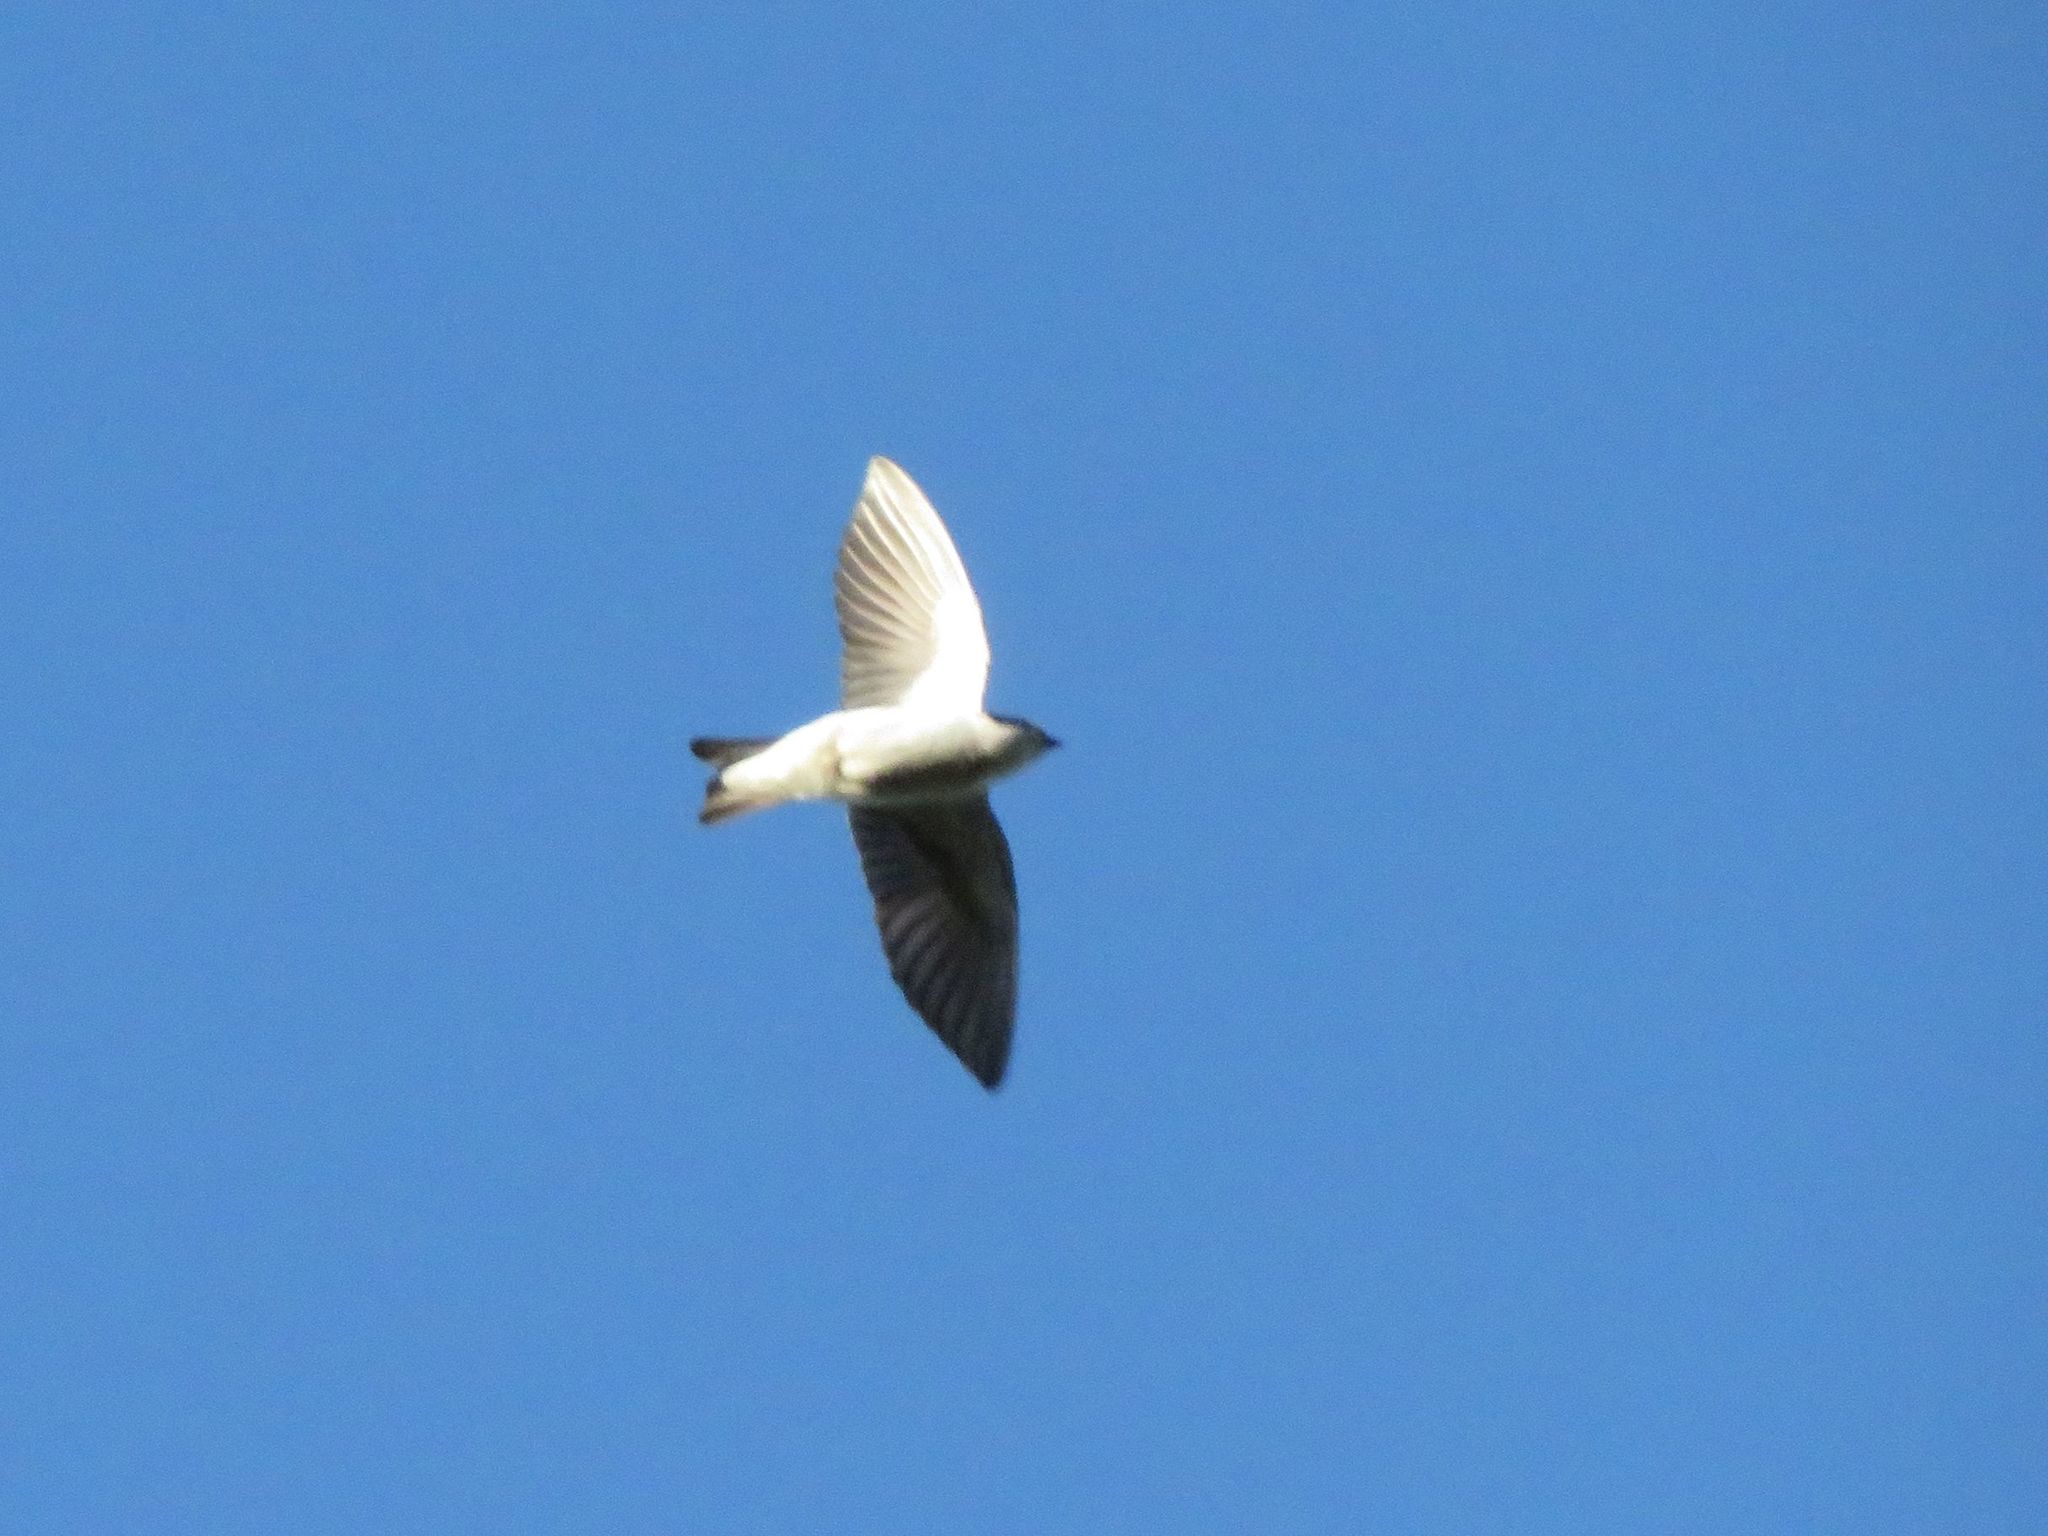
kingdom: Animalia
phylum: Chordata
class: Aves
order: Passeriformes
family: Hirundinidae
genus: Tachycineta
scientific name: Tachycineta leucorrhoa
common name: White-rumped swallow
